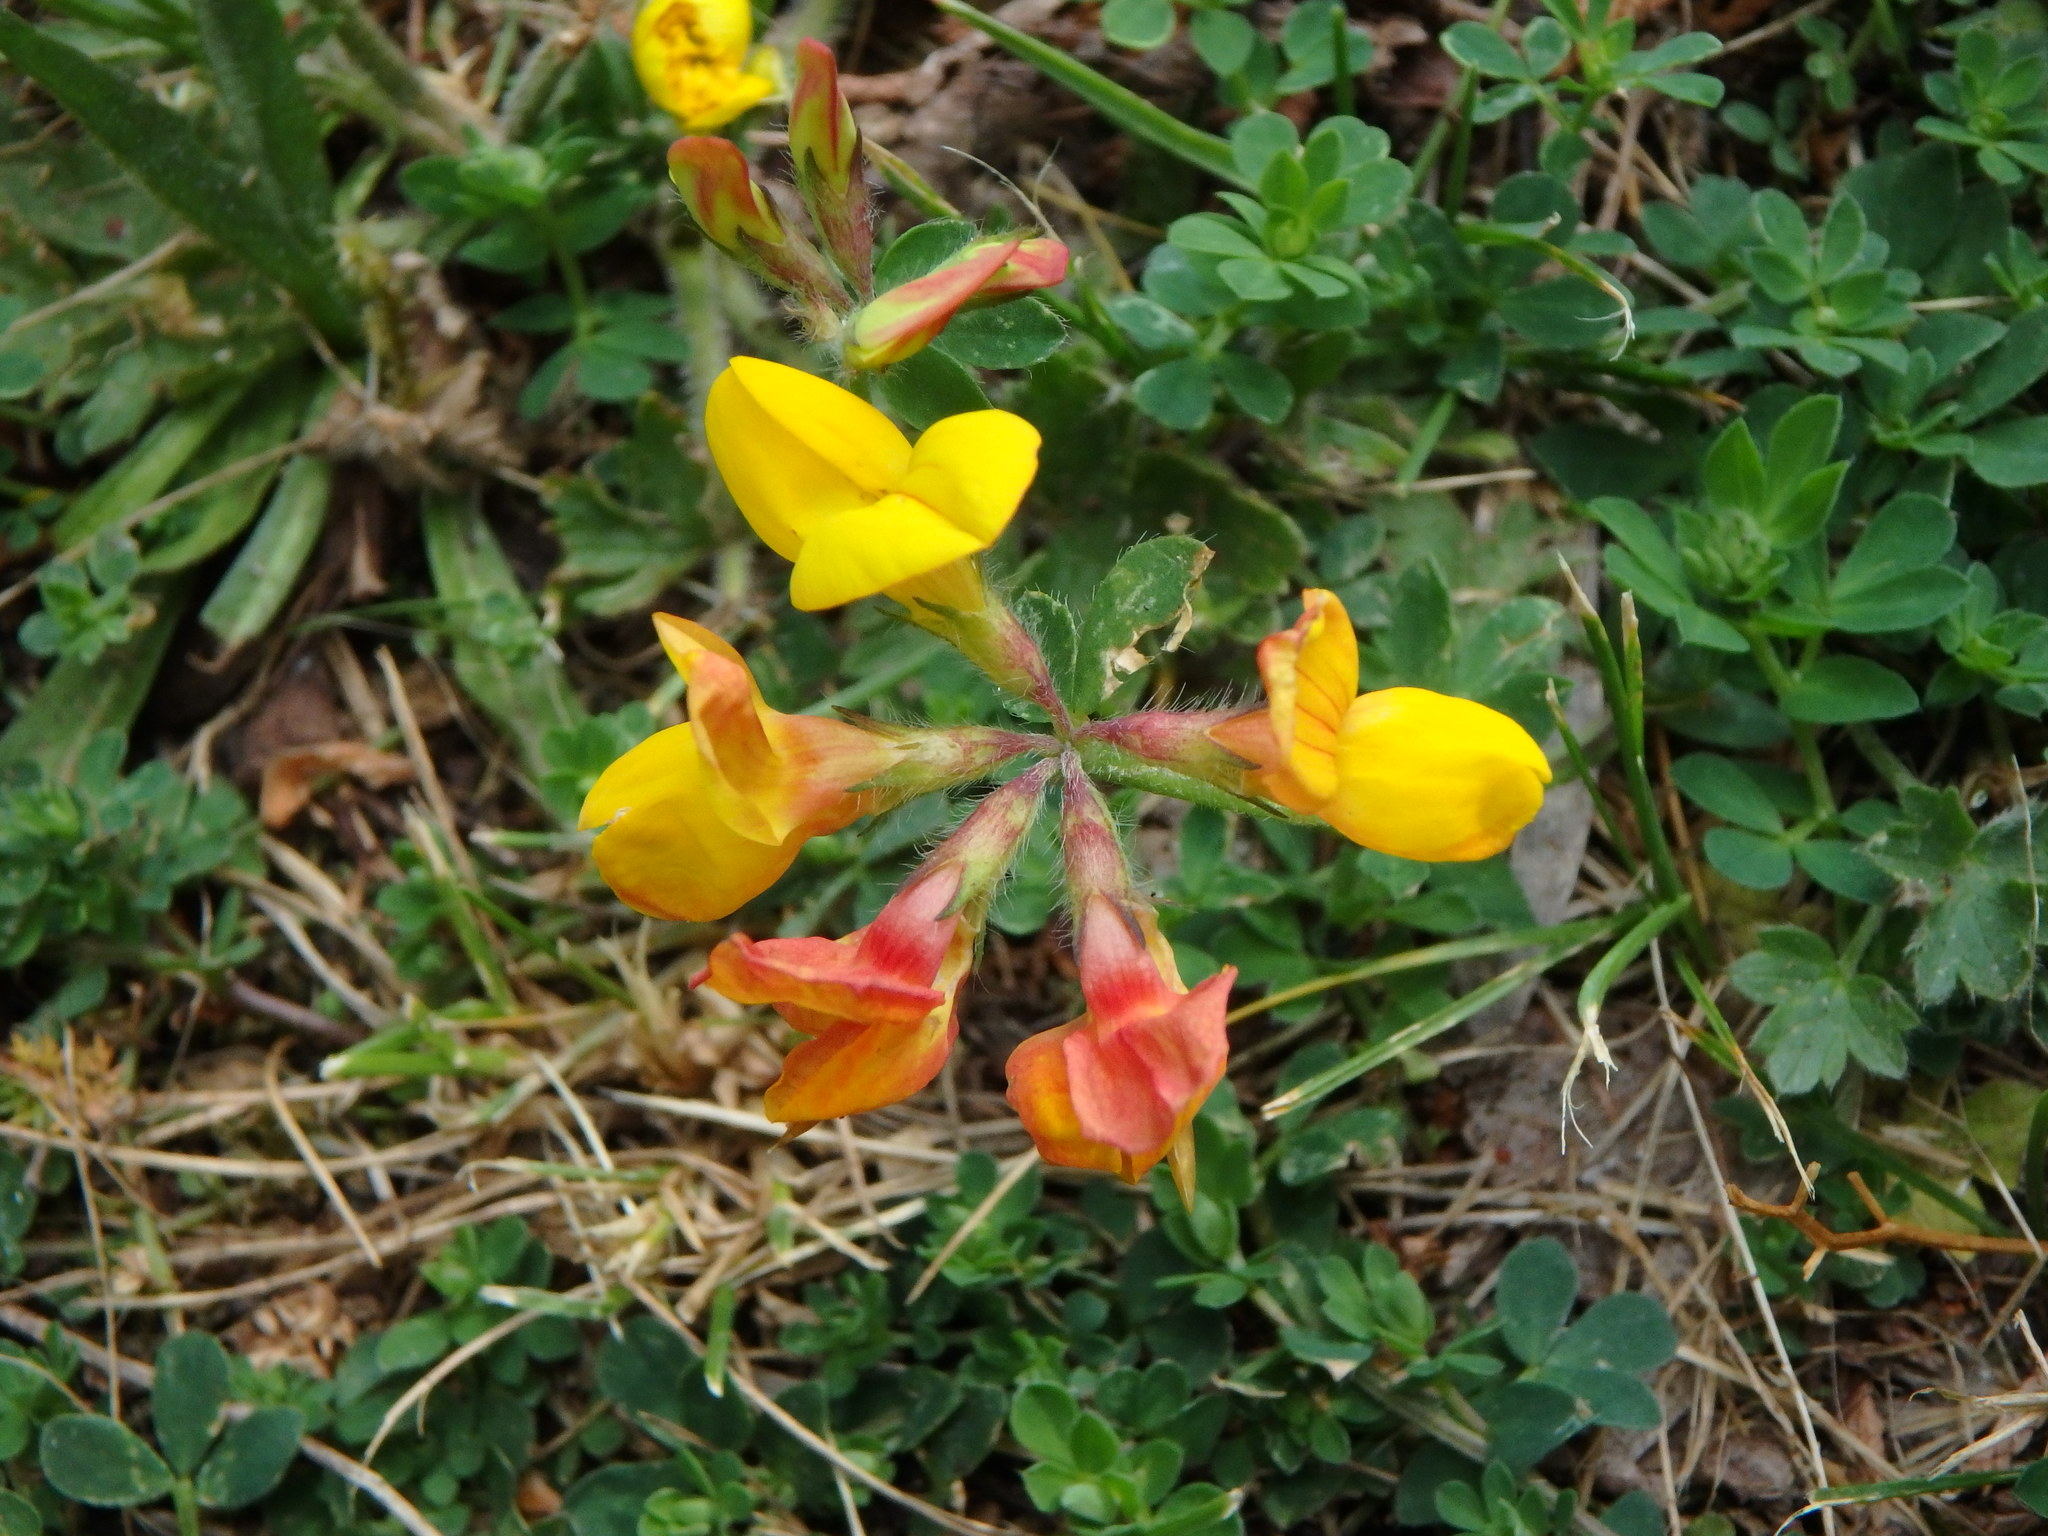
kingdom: Plantae
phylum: Tracheophyta
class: Magnoliopsida
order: Fabales
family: Fabaceae
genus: Lotus
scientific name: Lotus corniculatus
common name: Common bird's-foot-trefoil
